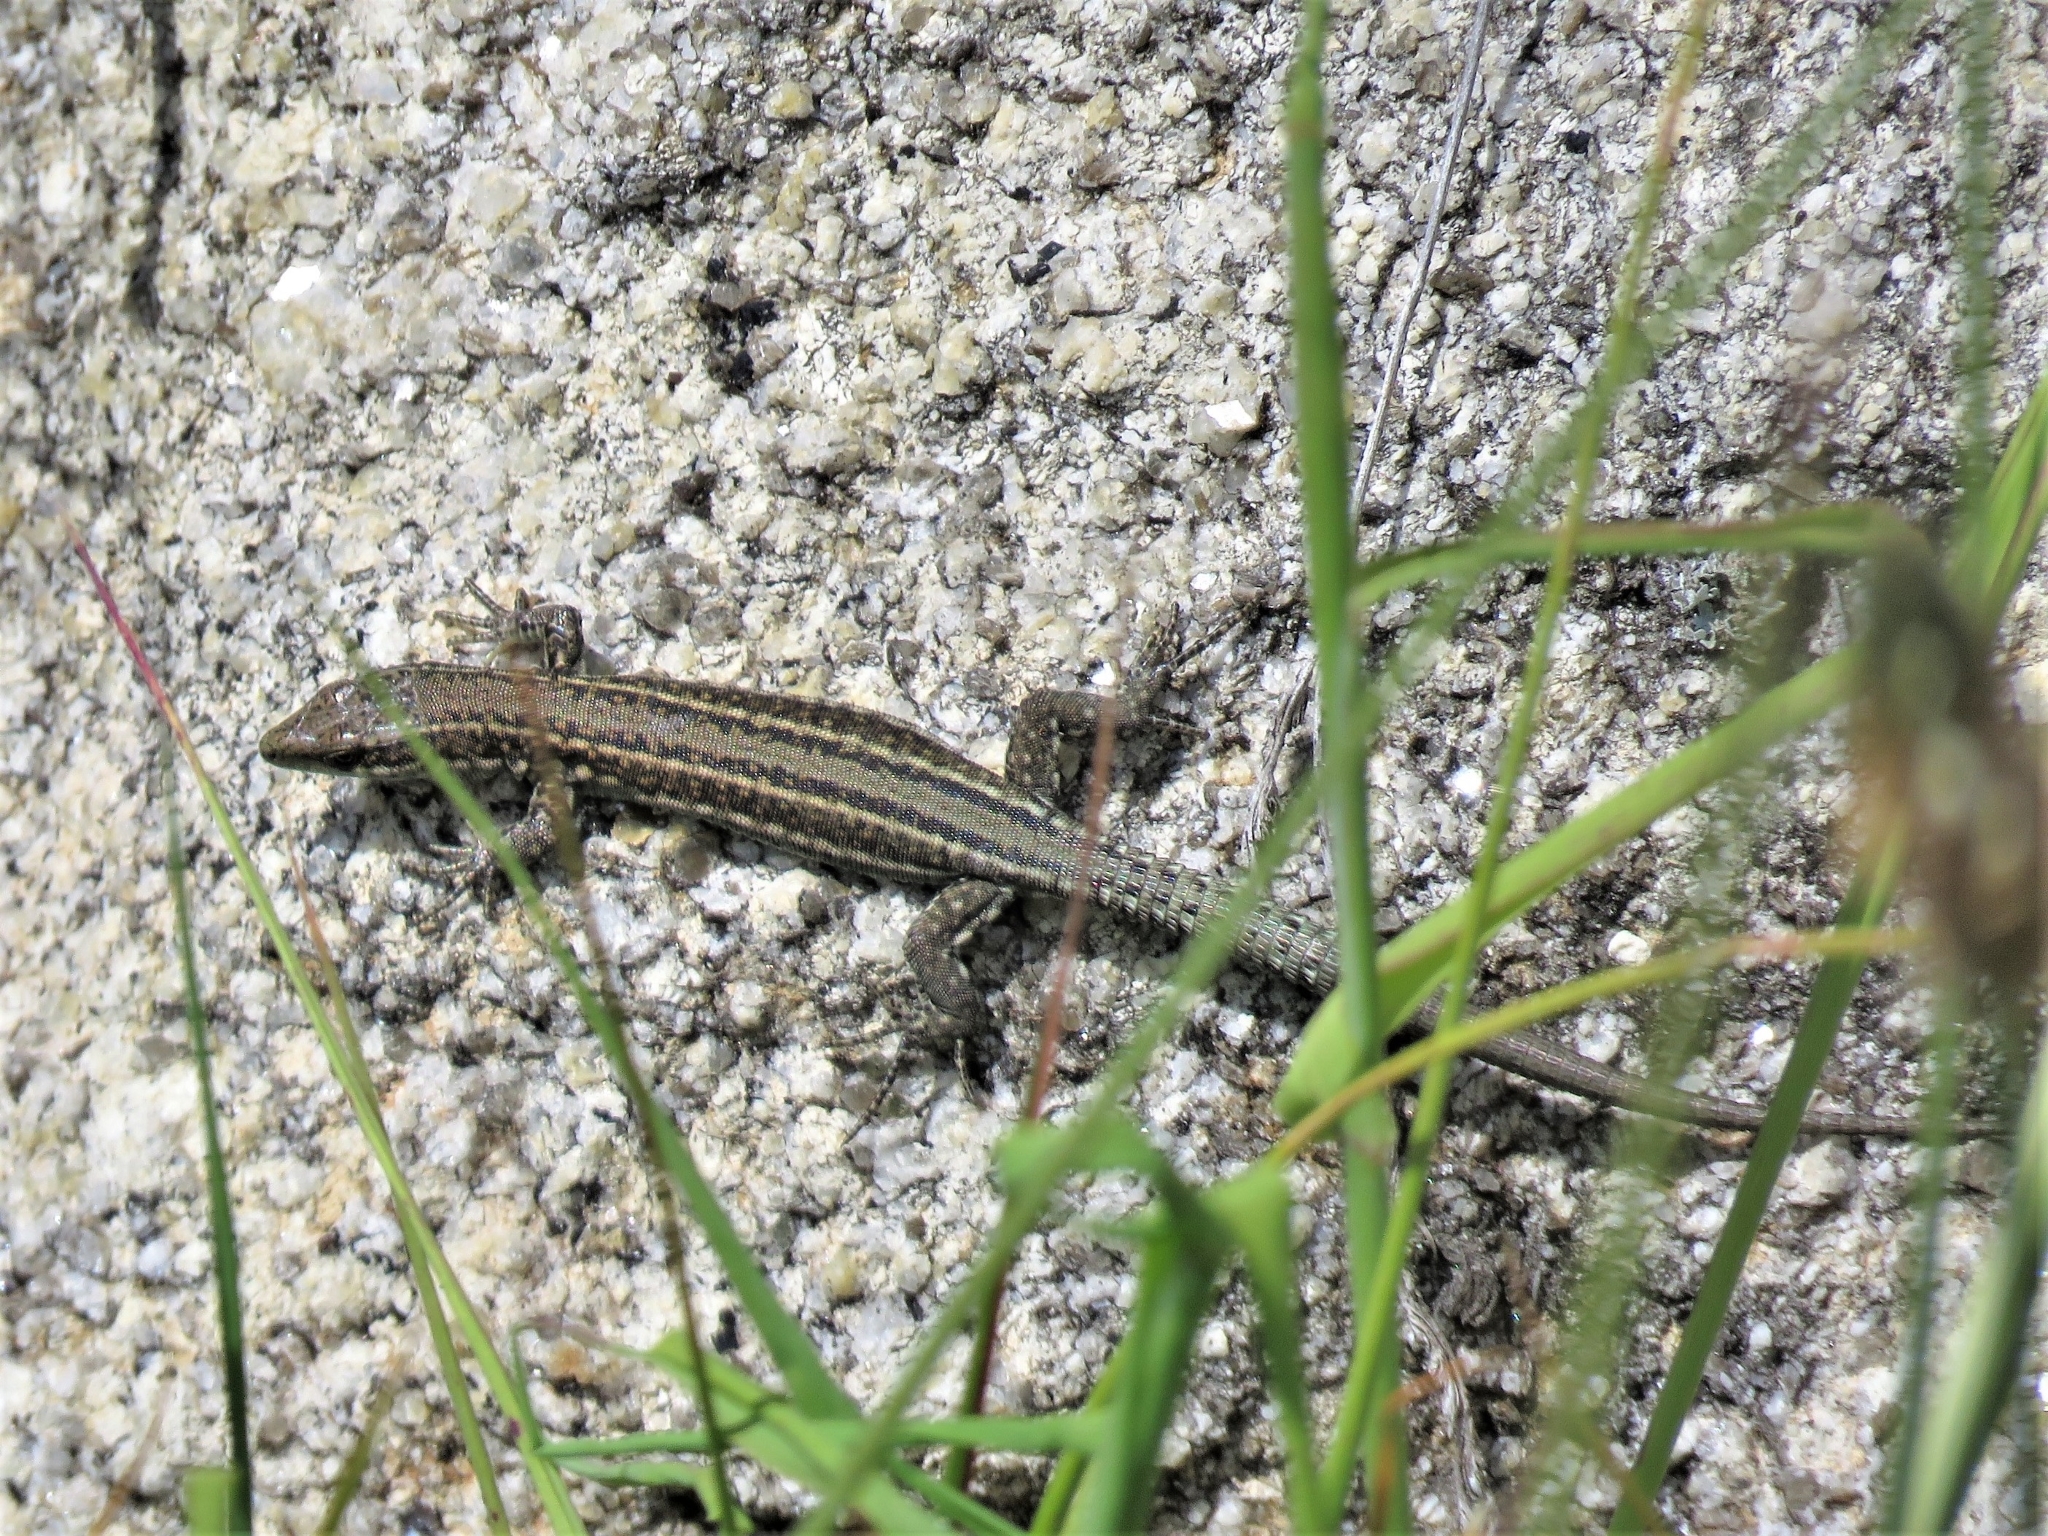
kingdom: Animalia
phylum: Chordata
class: Squamata
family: Lacertidae
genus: Podarcis
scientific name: Podarcis
